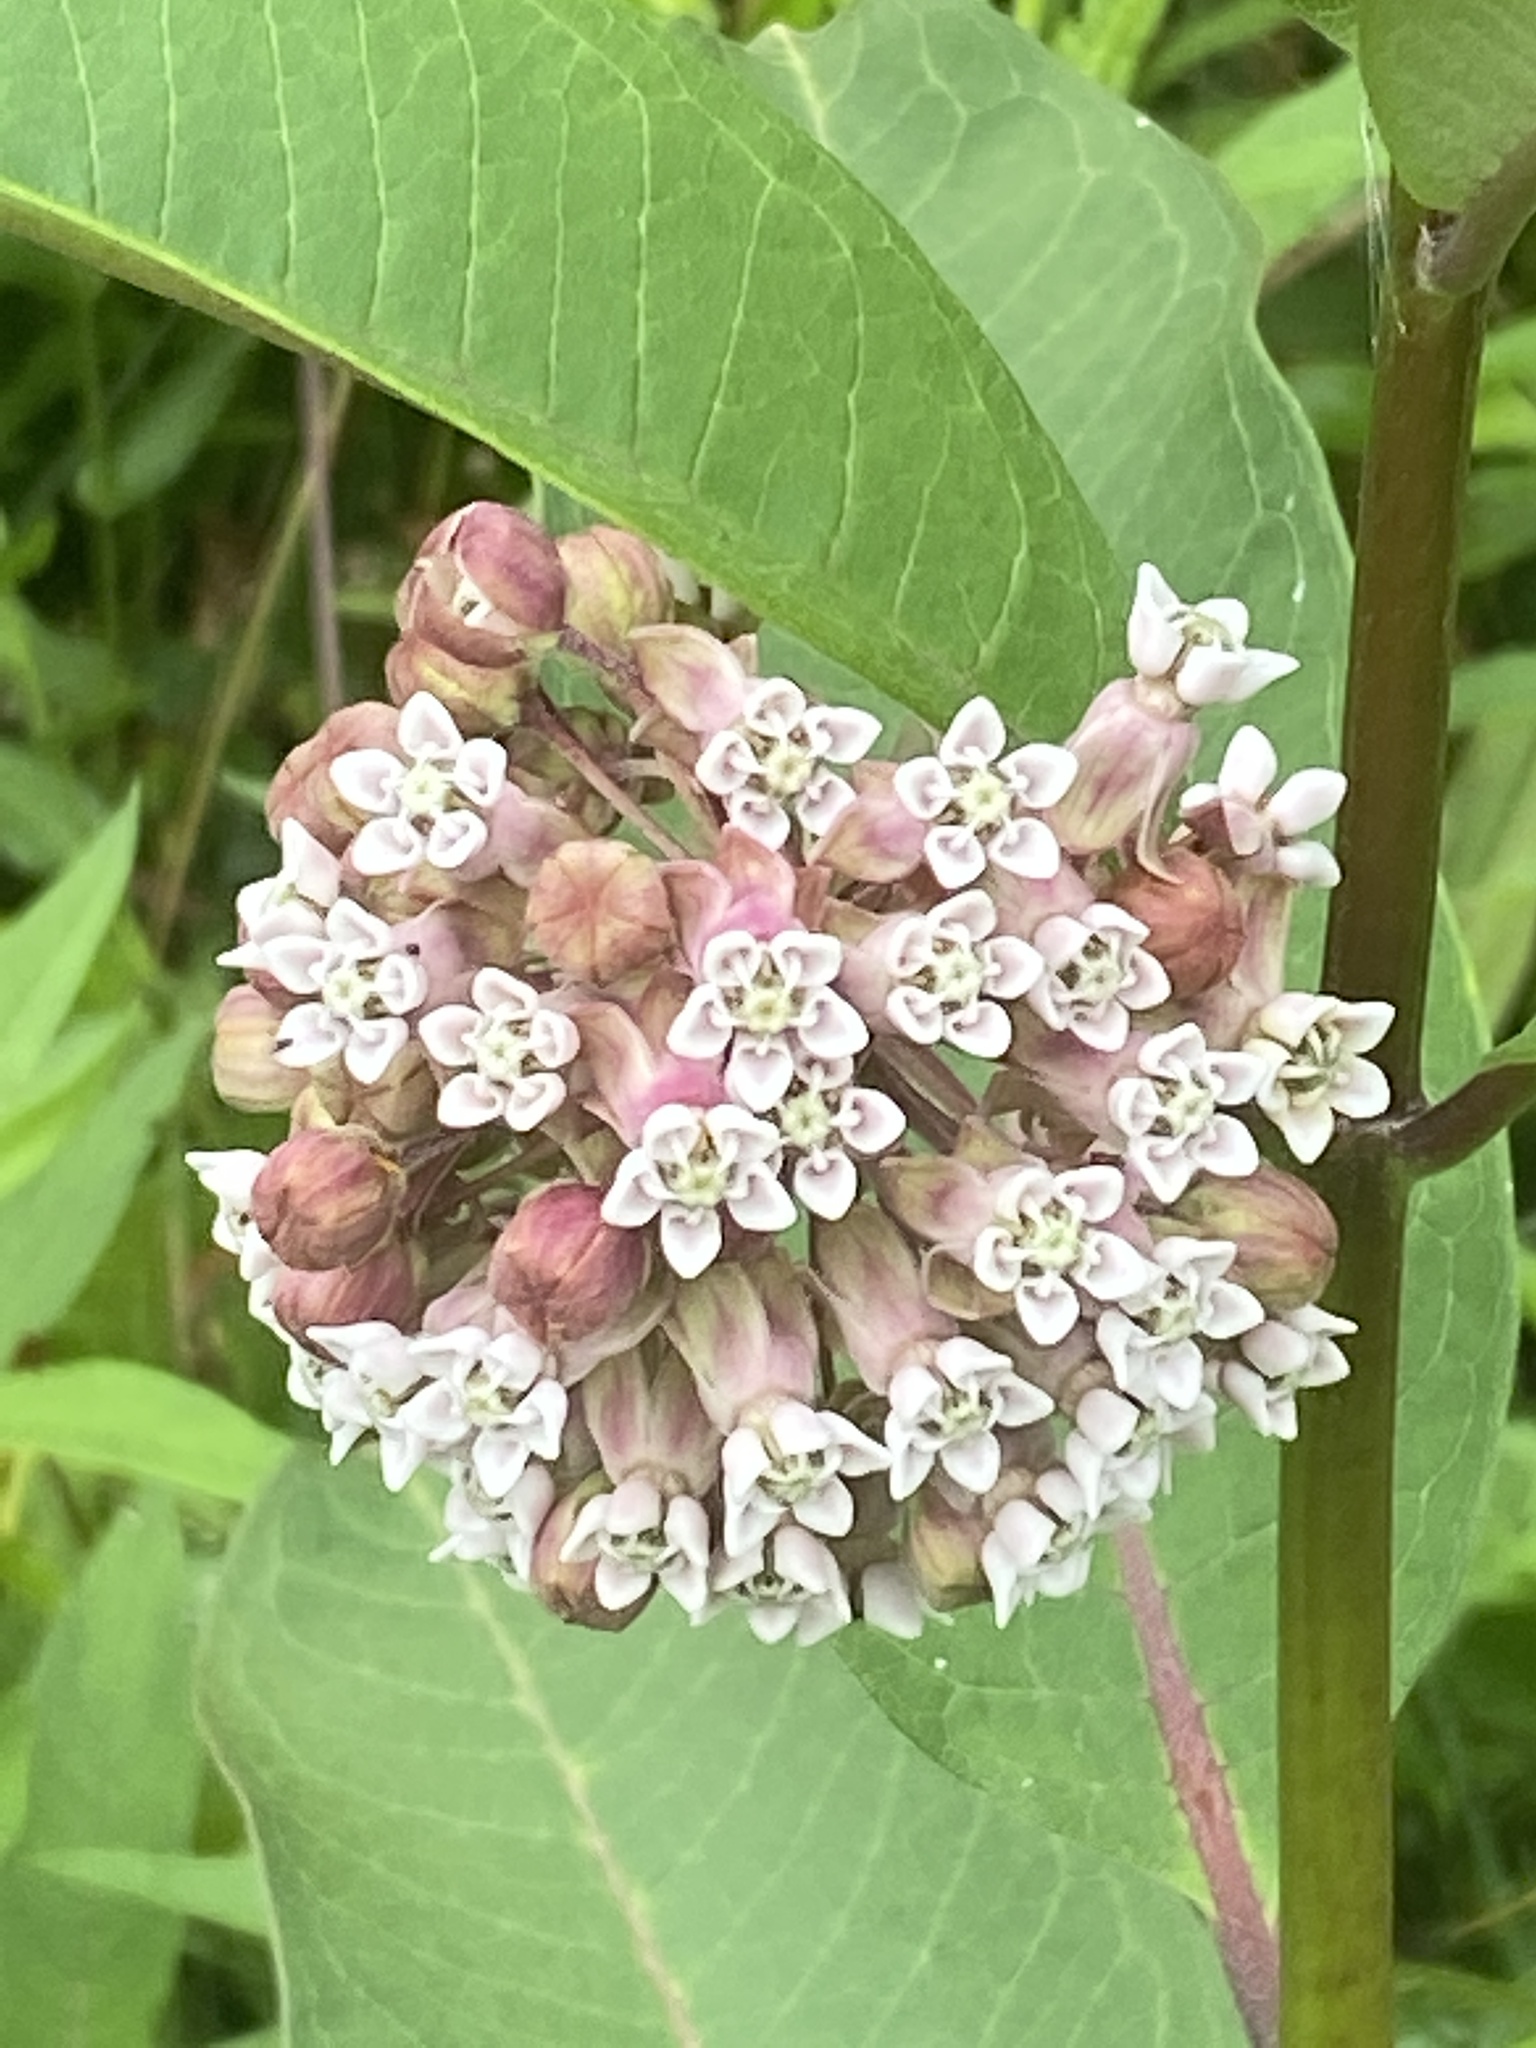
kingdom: Plantae
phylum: Tracheophyta
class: Magnoliopsida
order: Gentianales
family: Apocynaceae
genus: Asclepias
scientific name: Asclepias syriaca
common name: Common milkweed
